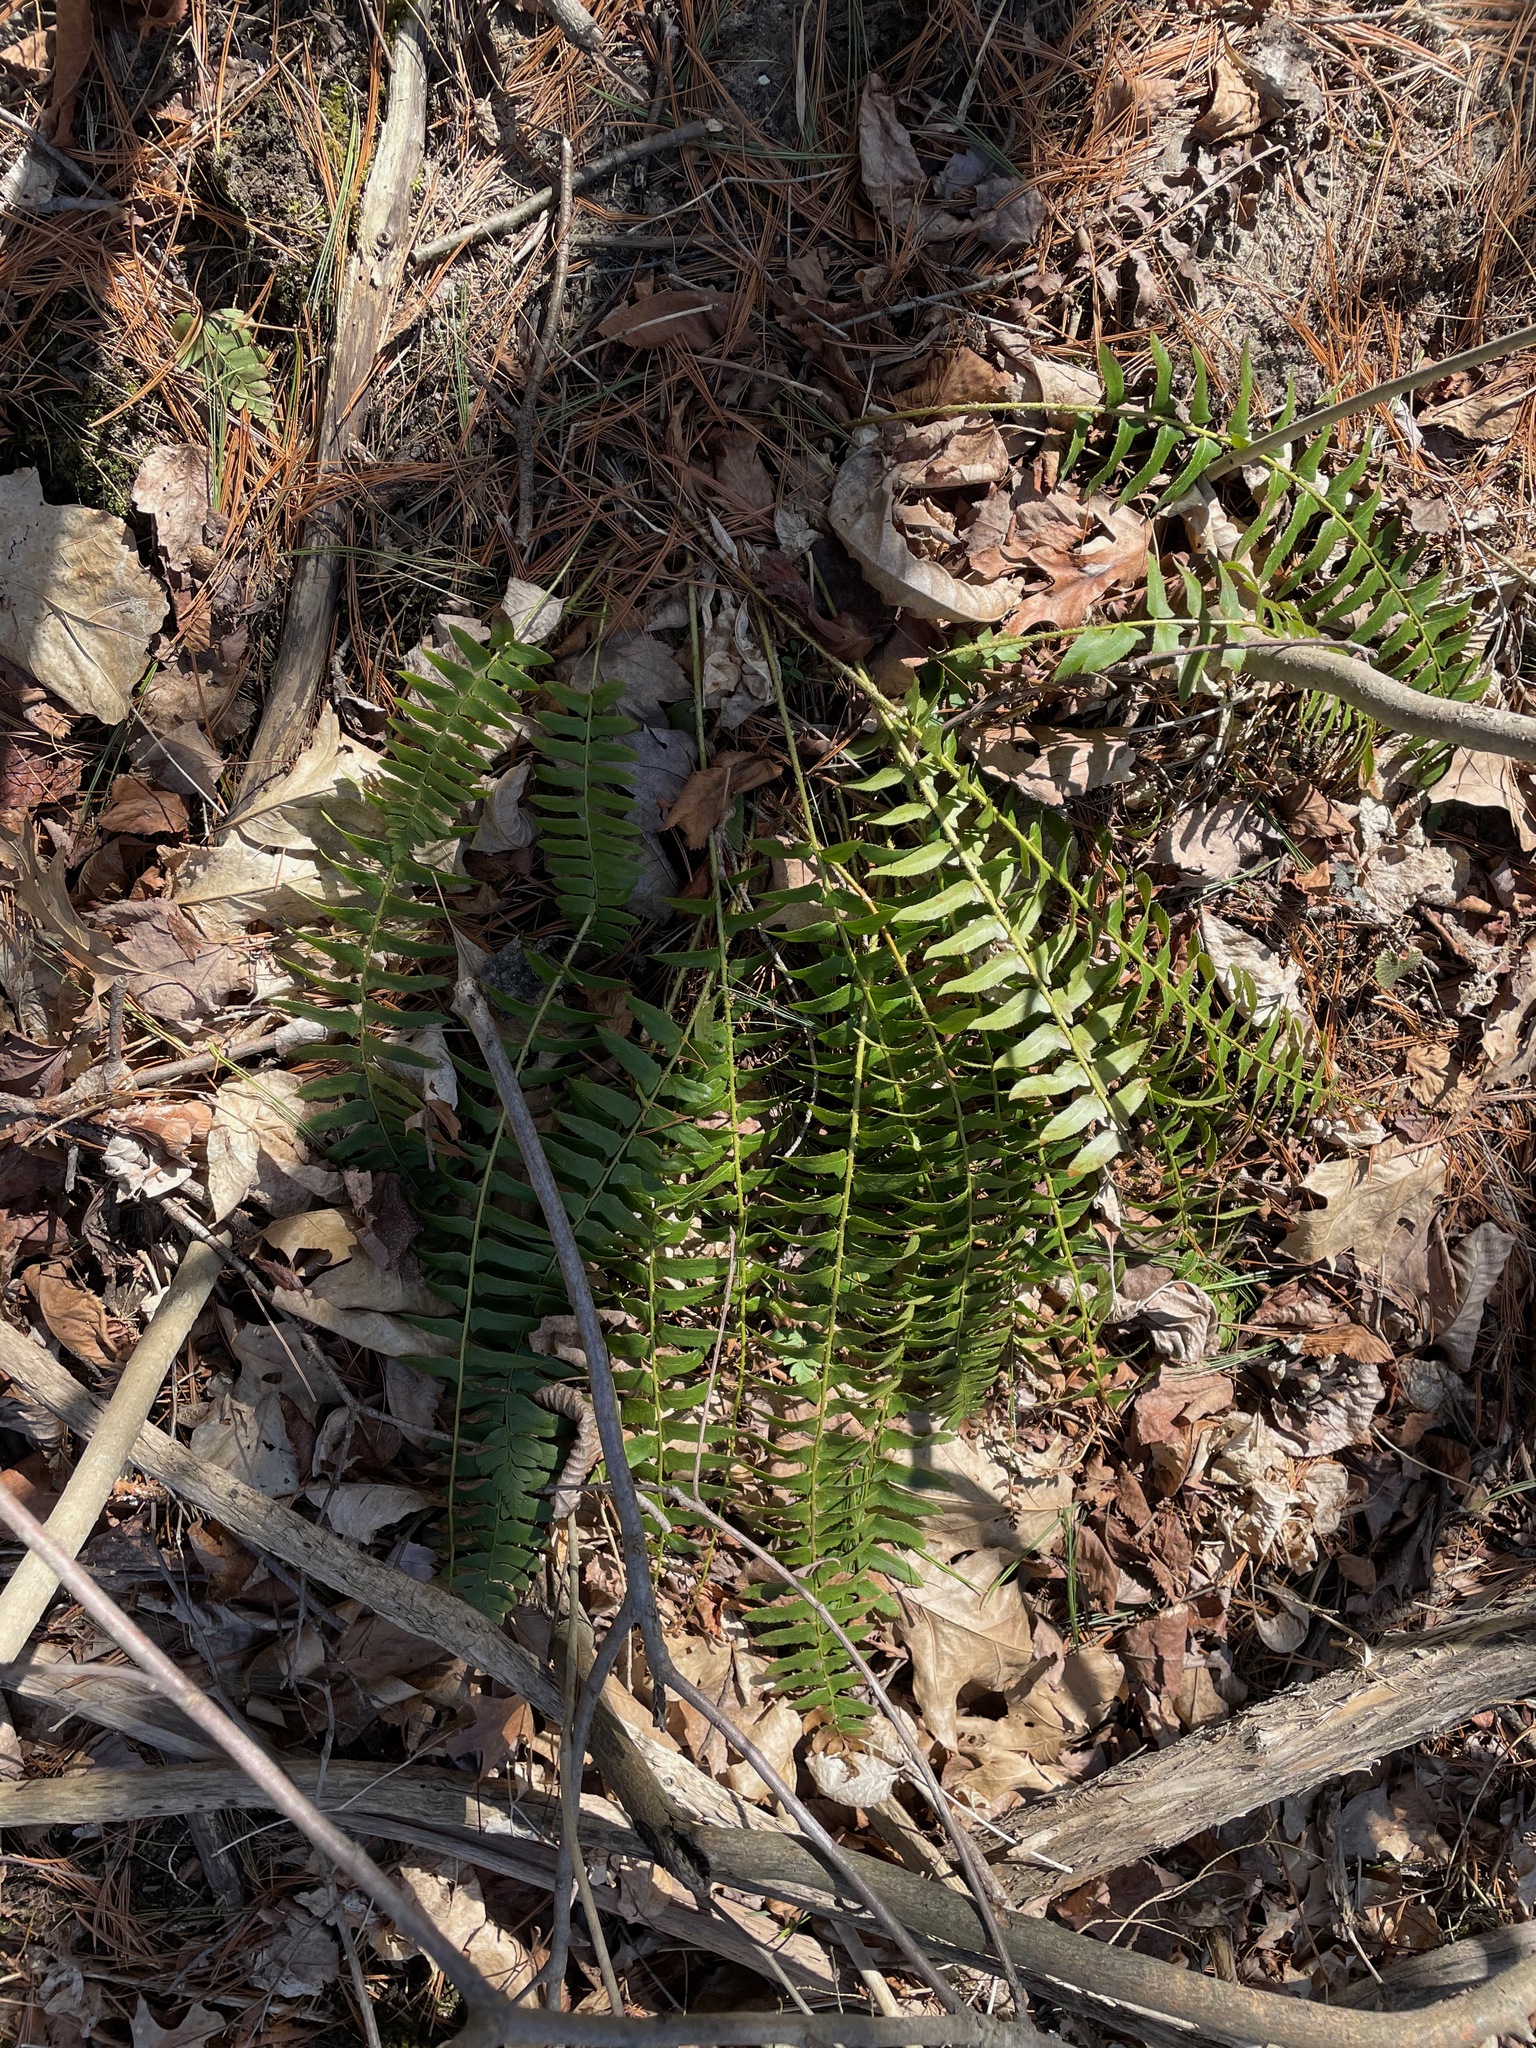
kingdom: Plantae
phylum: Tracheophyta
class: Polypodiopsida
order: Polypodiales
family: Dryopteridaceae
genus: Polystichum
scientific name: Polystichum acrostichoides
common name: Christmas fern
